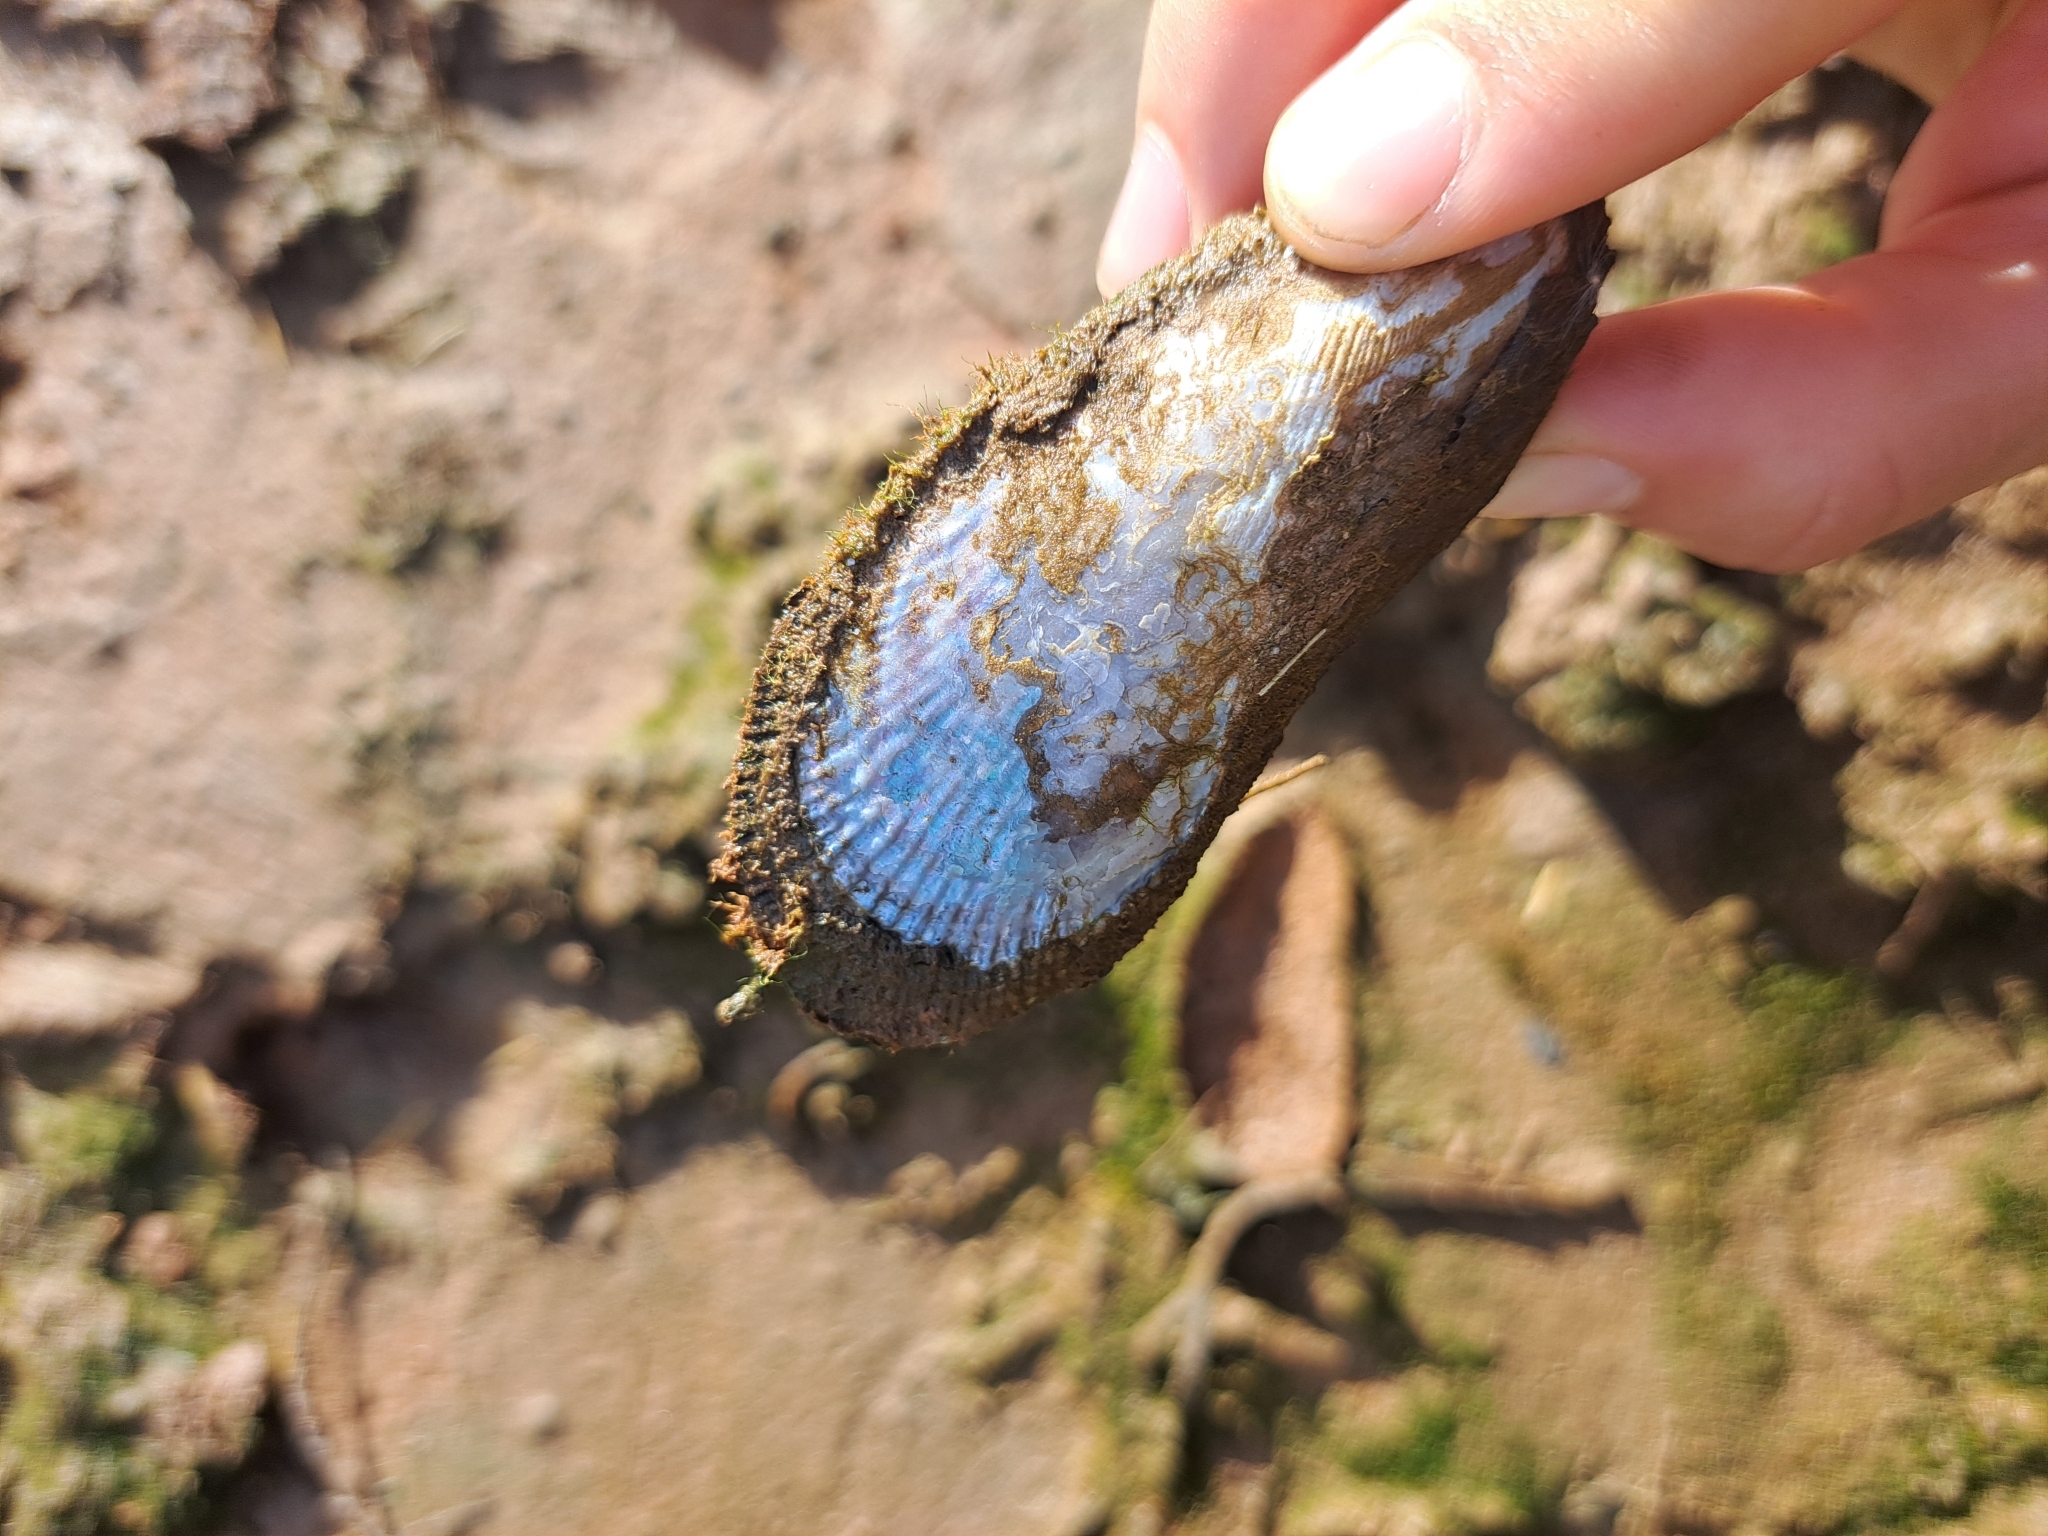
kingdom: Animalia
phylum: Mollusca
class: Bivalvia
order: Mytilida
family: Mytilidae
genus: Geukensia
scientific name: Geukensia demissa
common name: Ribbed mussel
